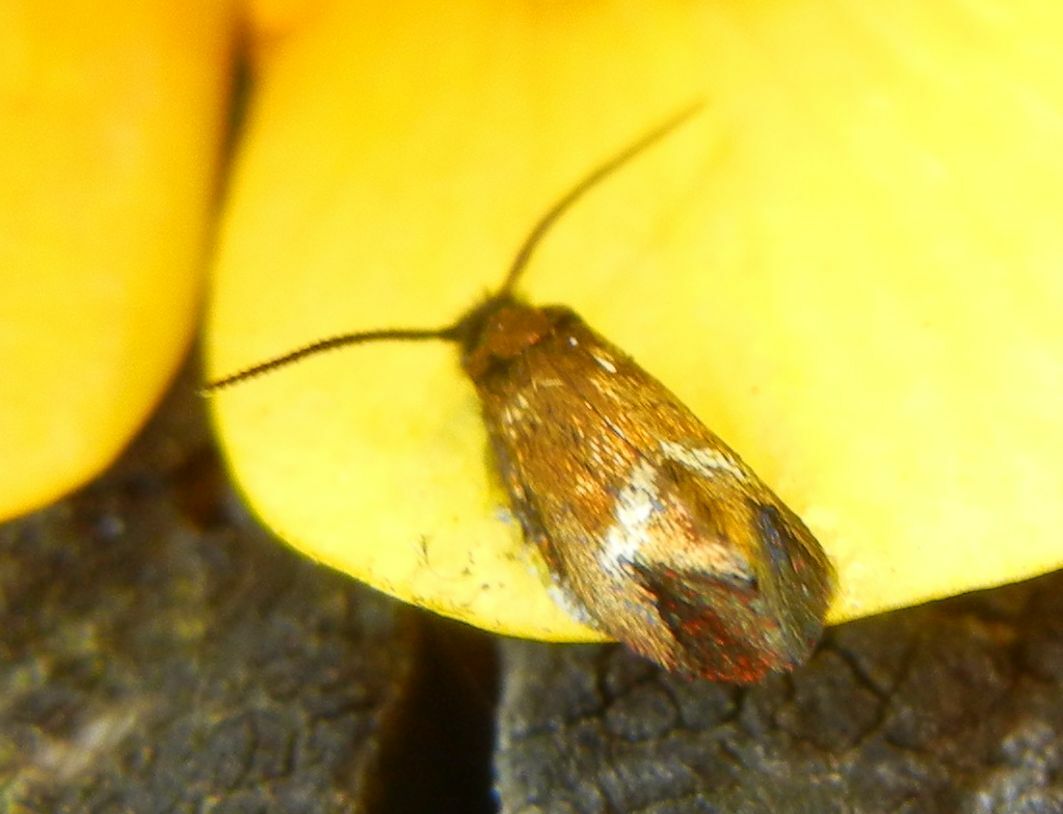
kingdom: Animalia
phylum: Arthropoda
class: Insecta
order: Lepidoptera
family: Adelidae
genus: Cauchas
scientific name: Cauchas fibulella
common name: Little long-horn
